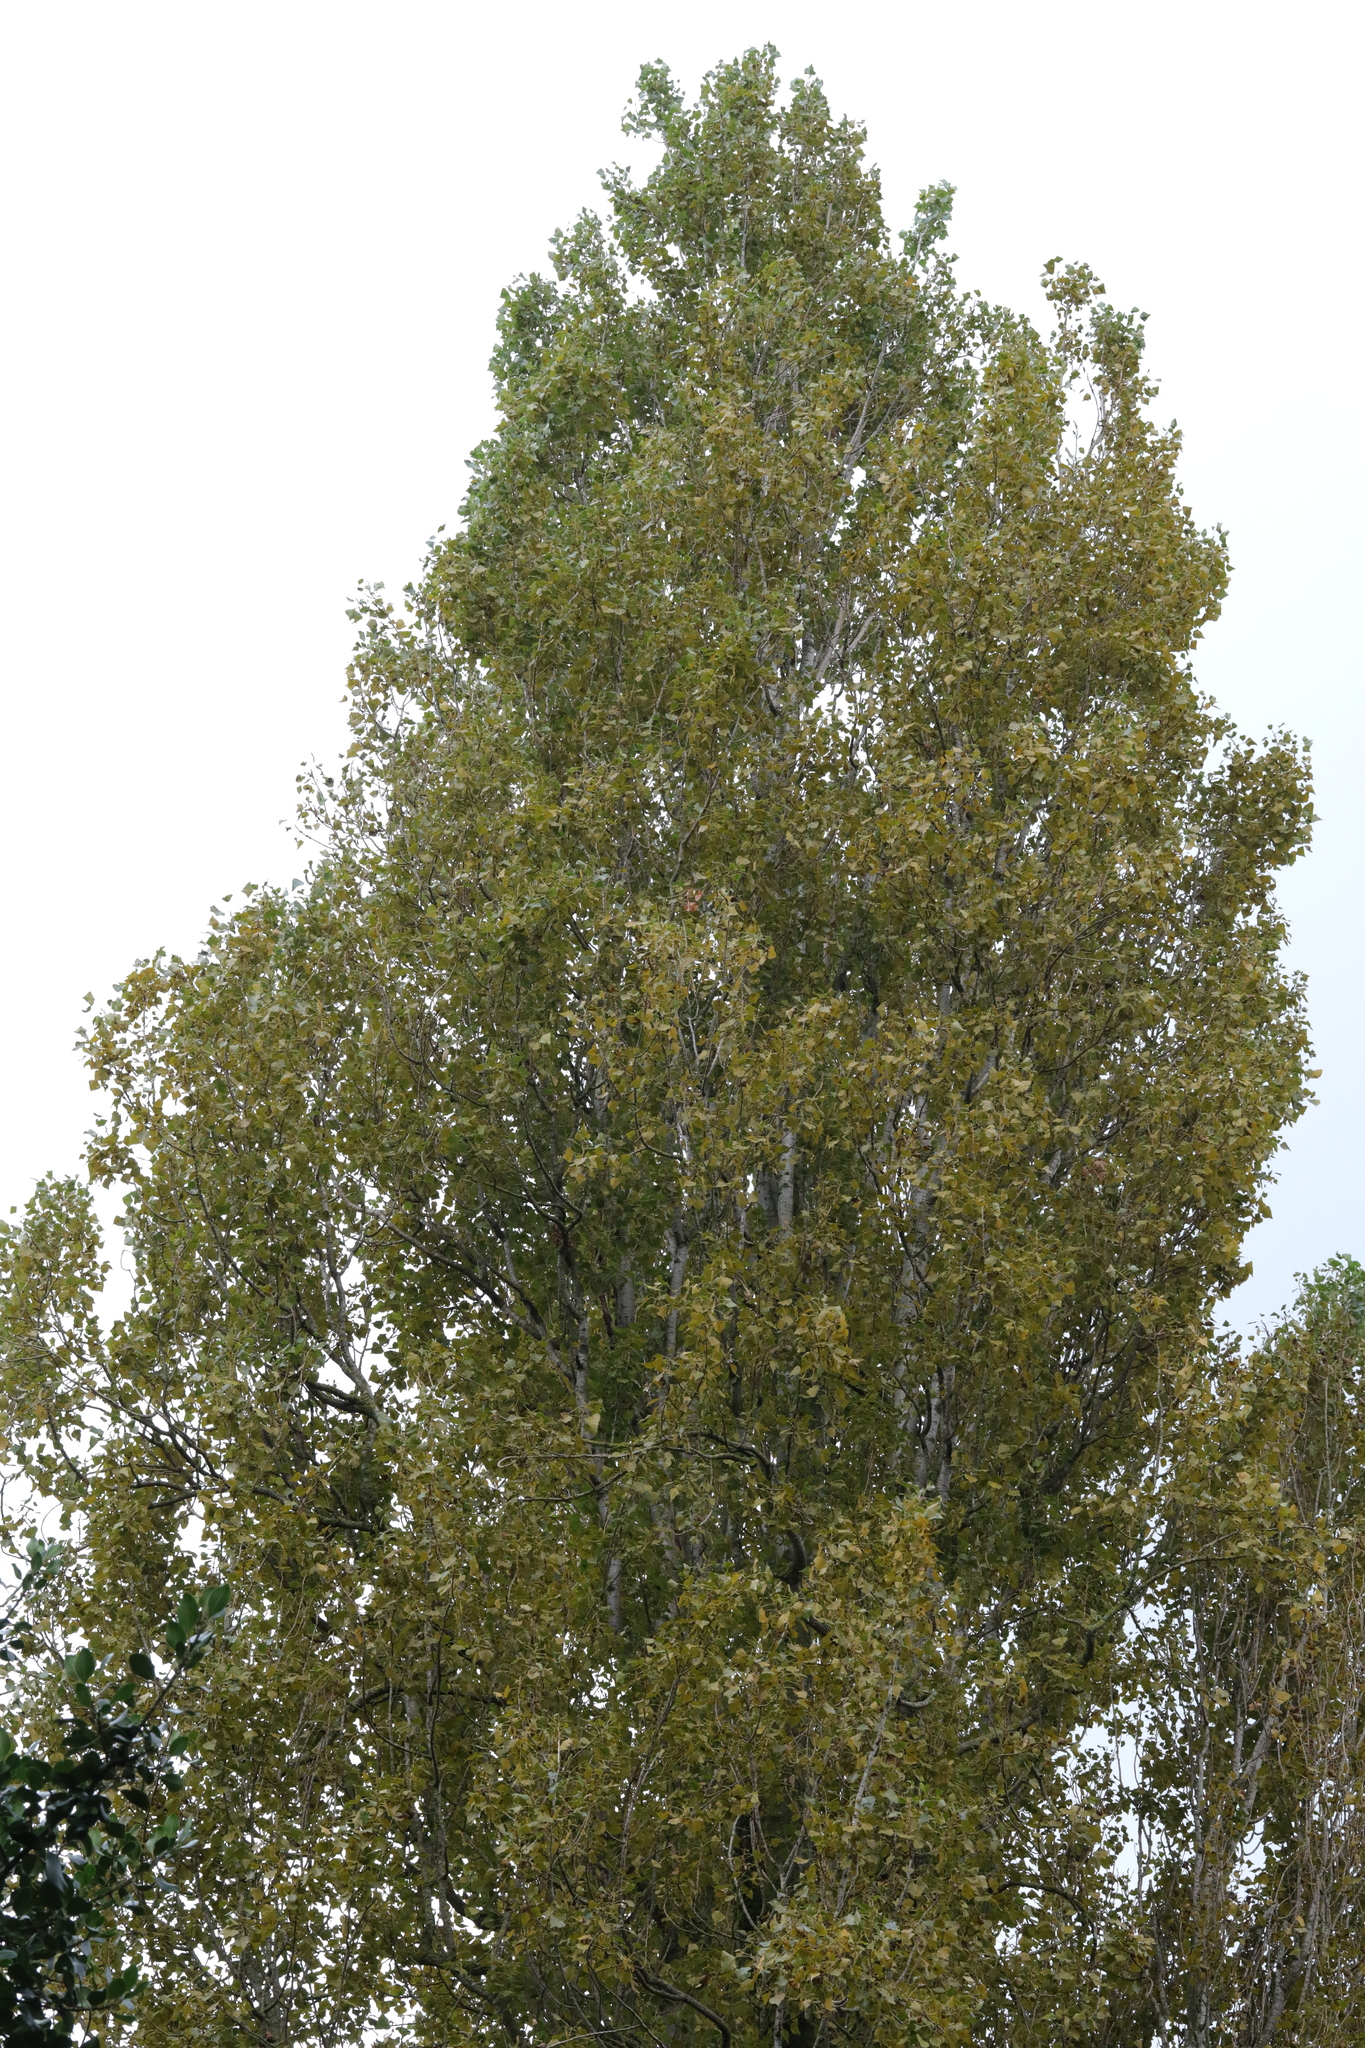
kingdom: Plantae
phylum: Tracheophyta
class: Magnoliopsida
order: Malpighiales
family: Salicaceae
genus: Populus
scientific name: Populus nigra
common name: Black poplar
